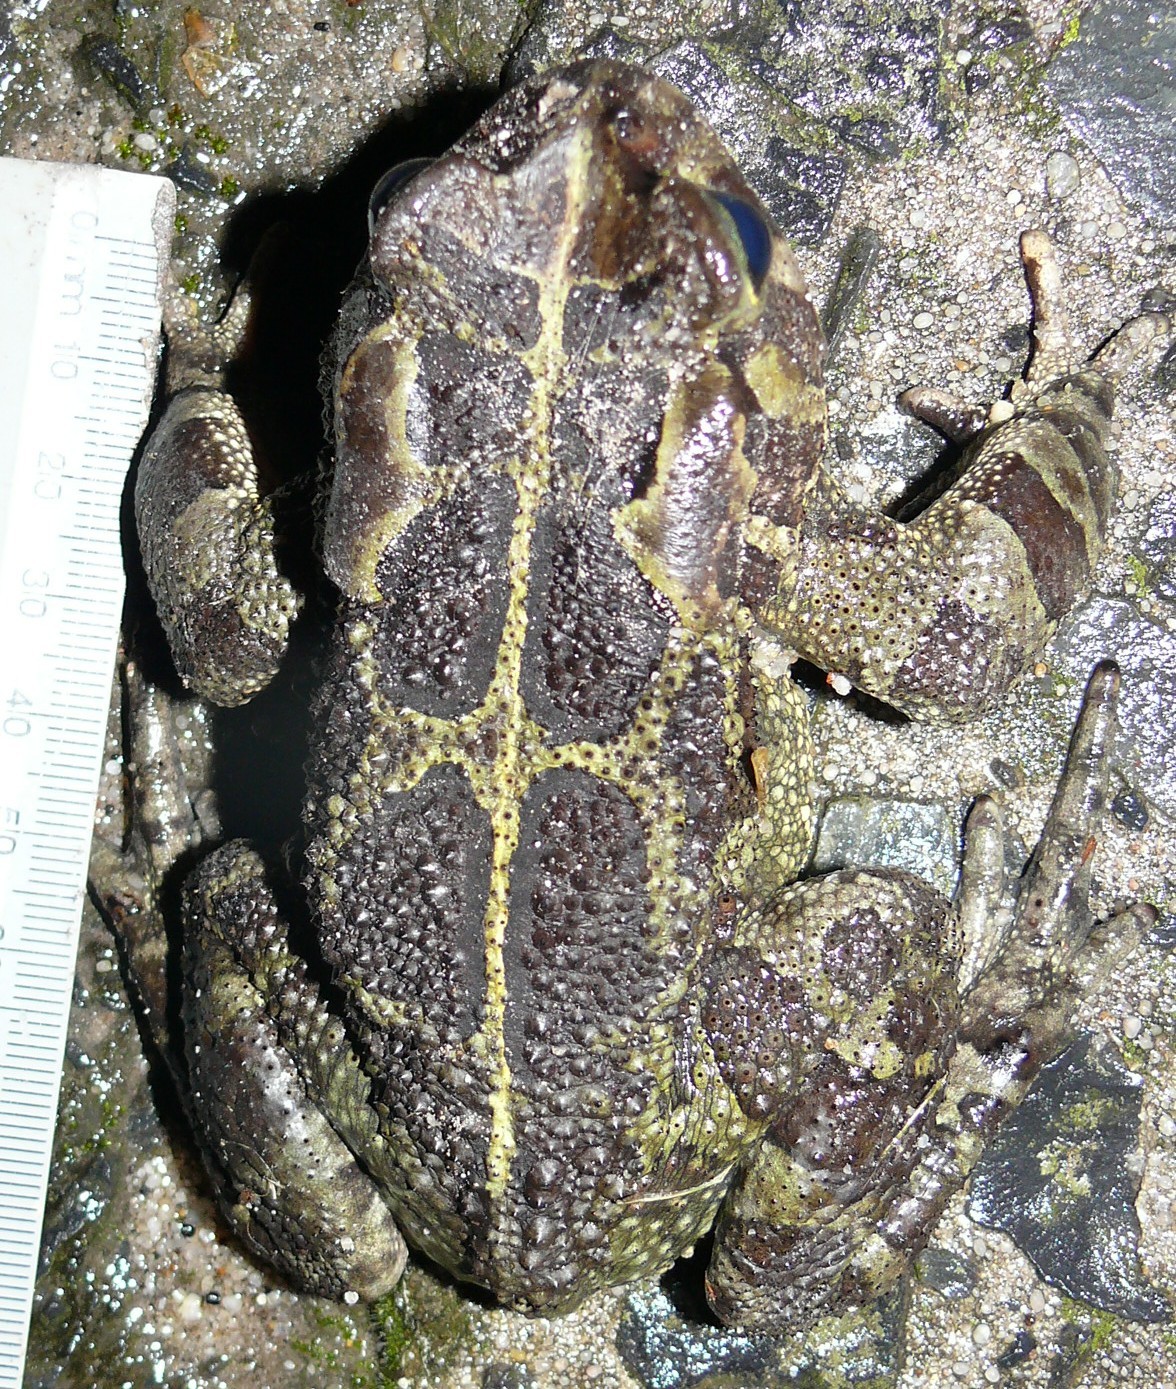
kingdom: Animalia
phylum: Chordata
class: Amphibia
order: Anura
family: Bufonidae
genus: Sclerophrys
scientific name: Sclerophrys pantherina
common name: Panther toad
